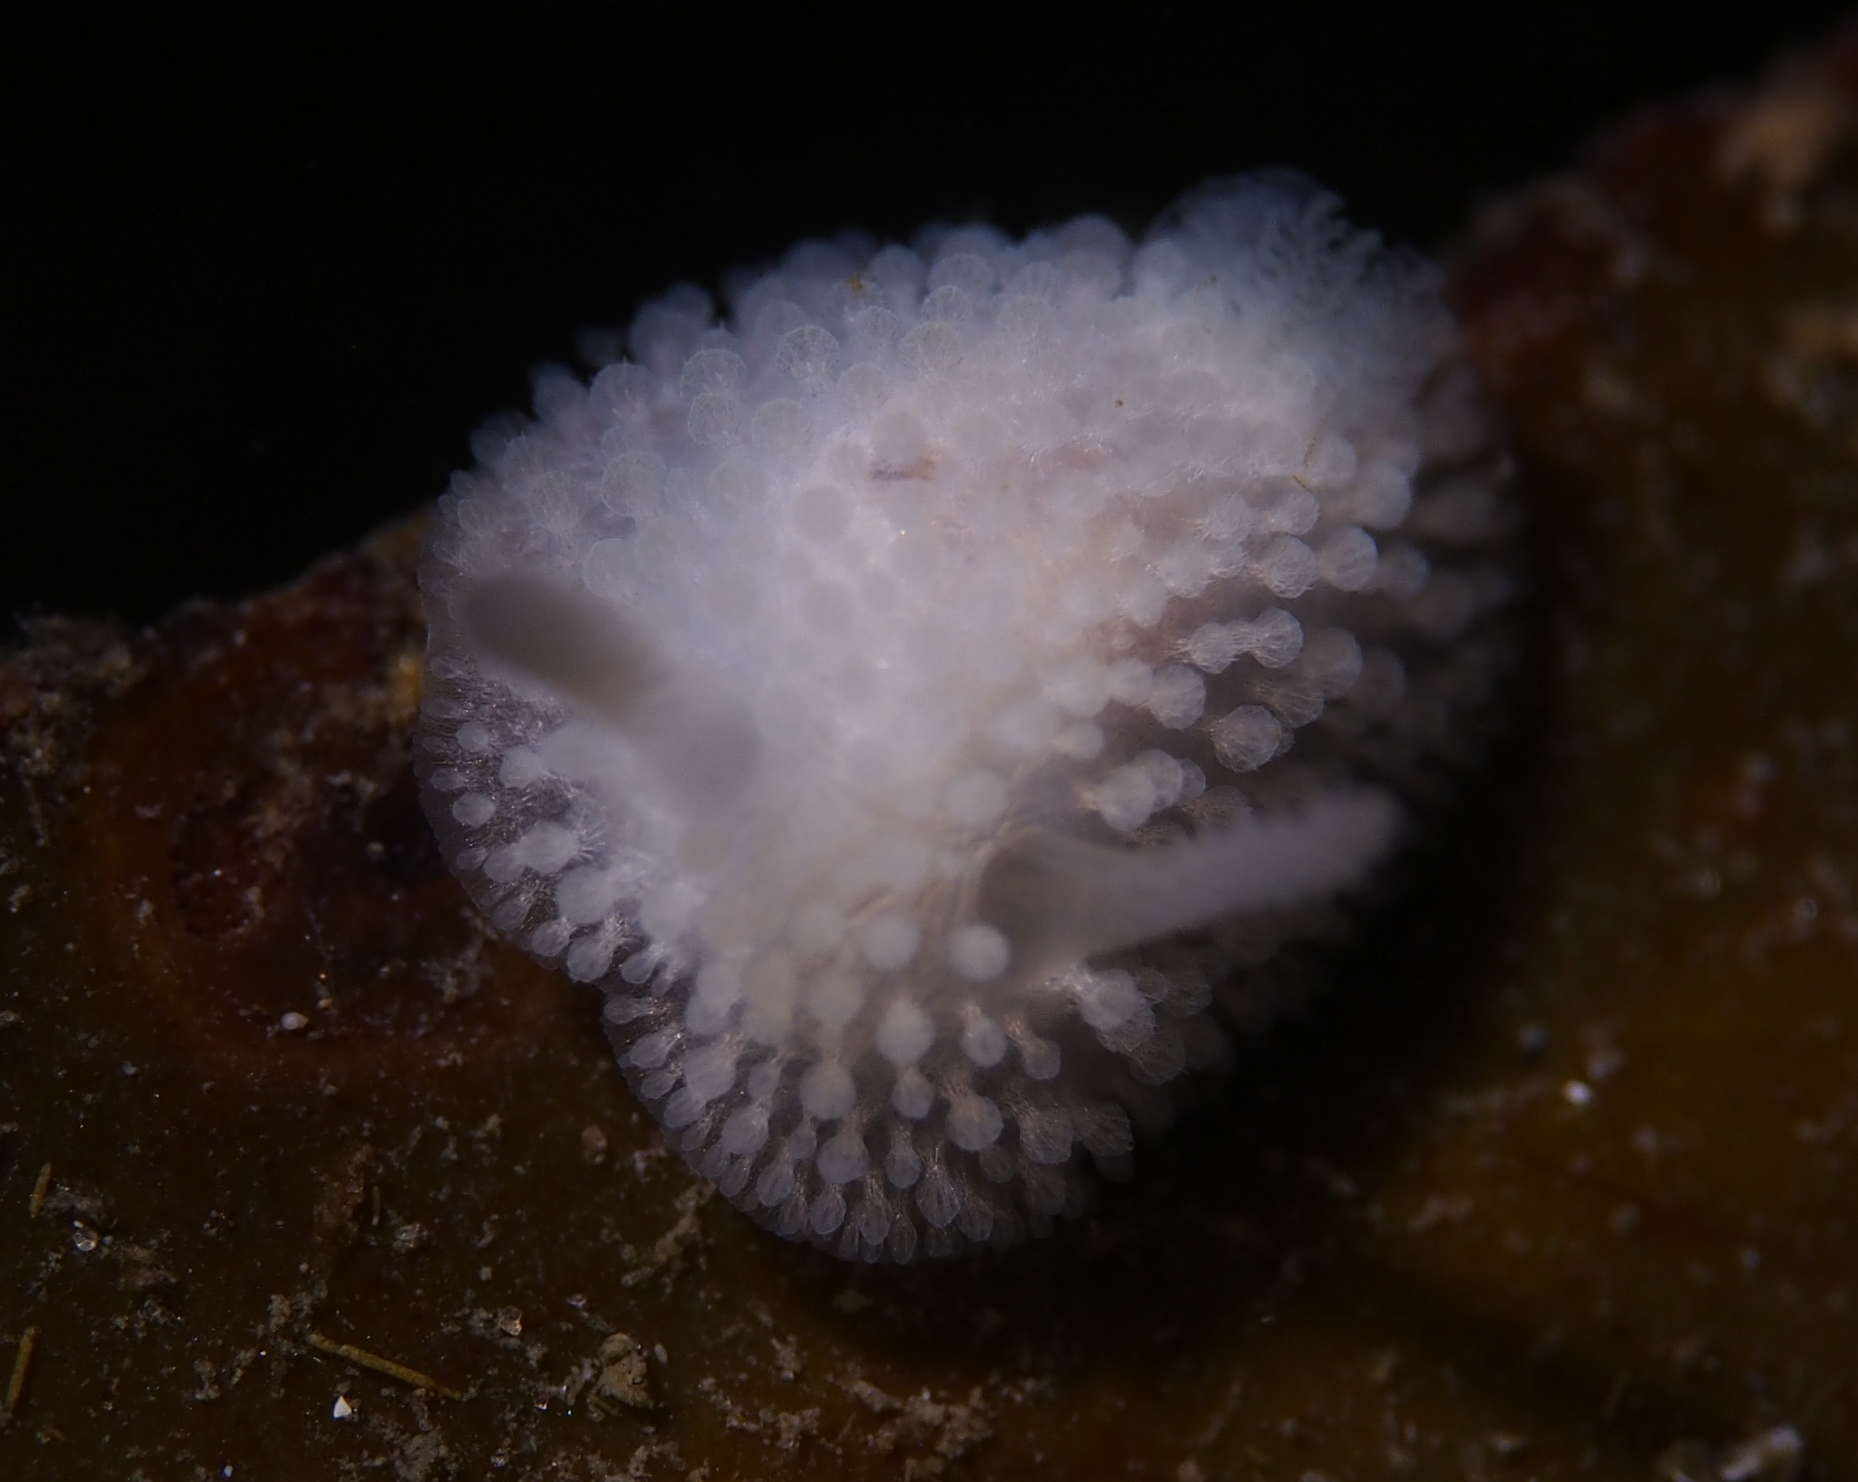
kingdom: Animalia
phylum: Mollusca
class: Gastropoda
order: Nudibranchia
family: Onchidorididae
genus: Onchidoris
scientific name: Onchidoris muricata
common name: Rough doris
